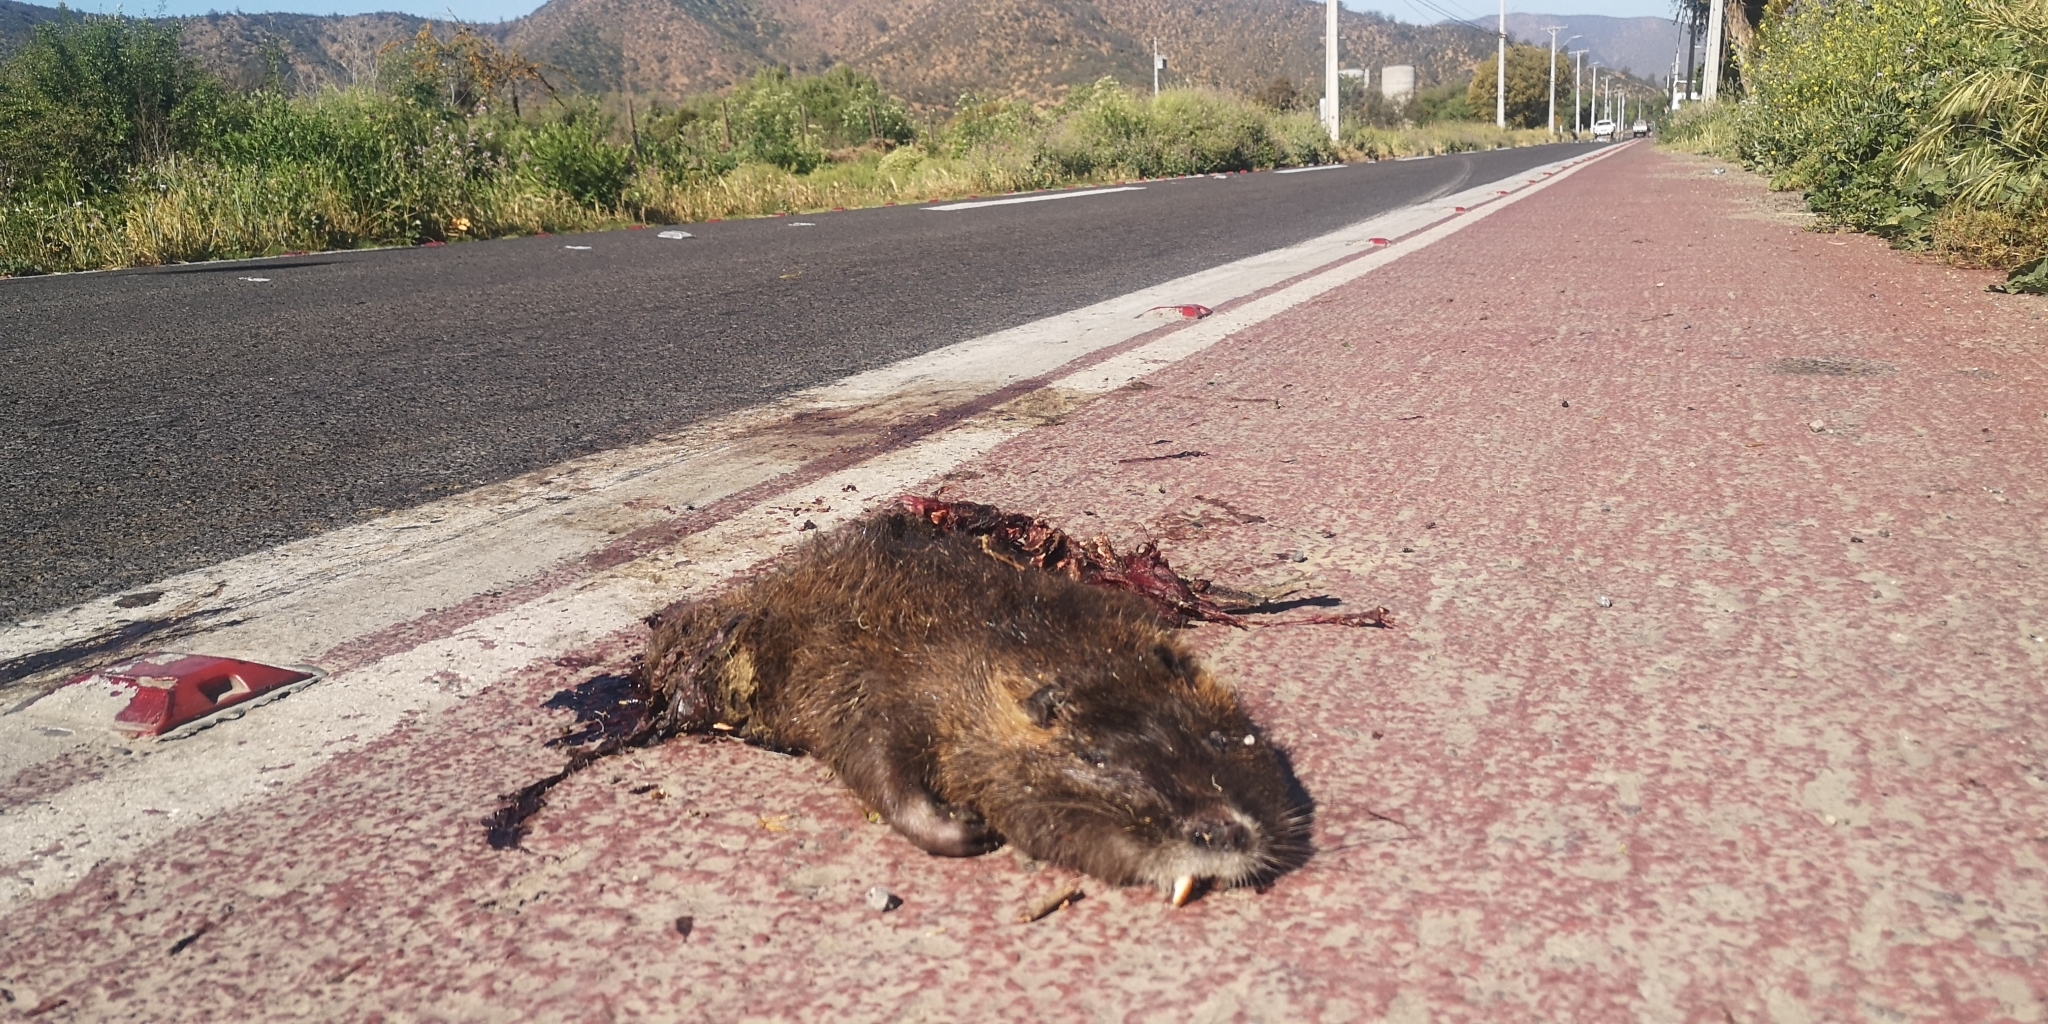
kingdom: Animalia
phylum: Chordata
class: Mammalia
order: Rodentia
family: Myocastoridae
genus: Myocastor
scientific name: Myocastor coypus
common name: Coypu
